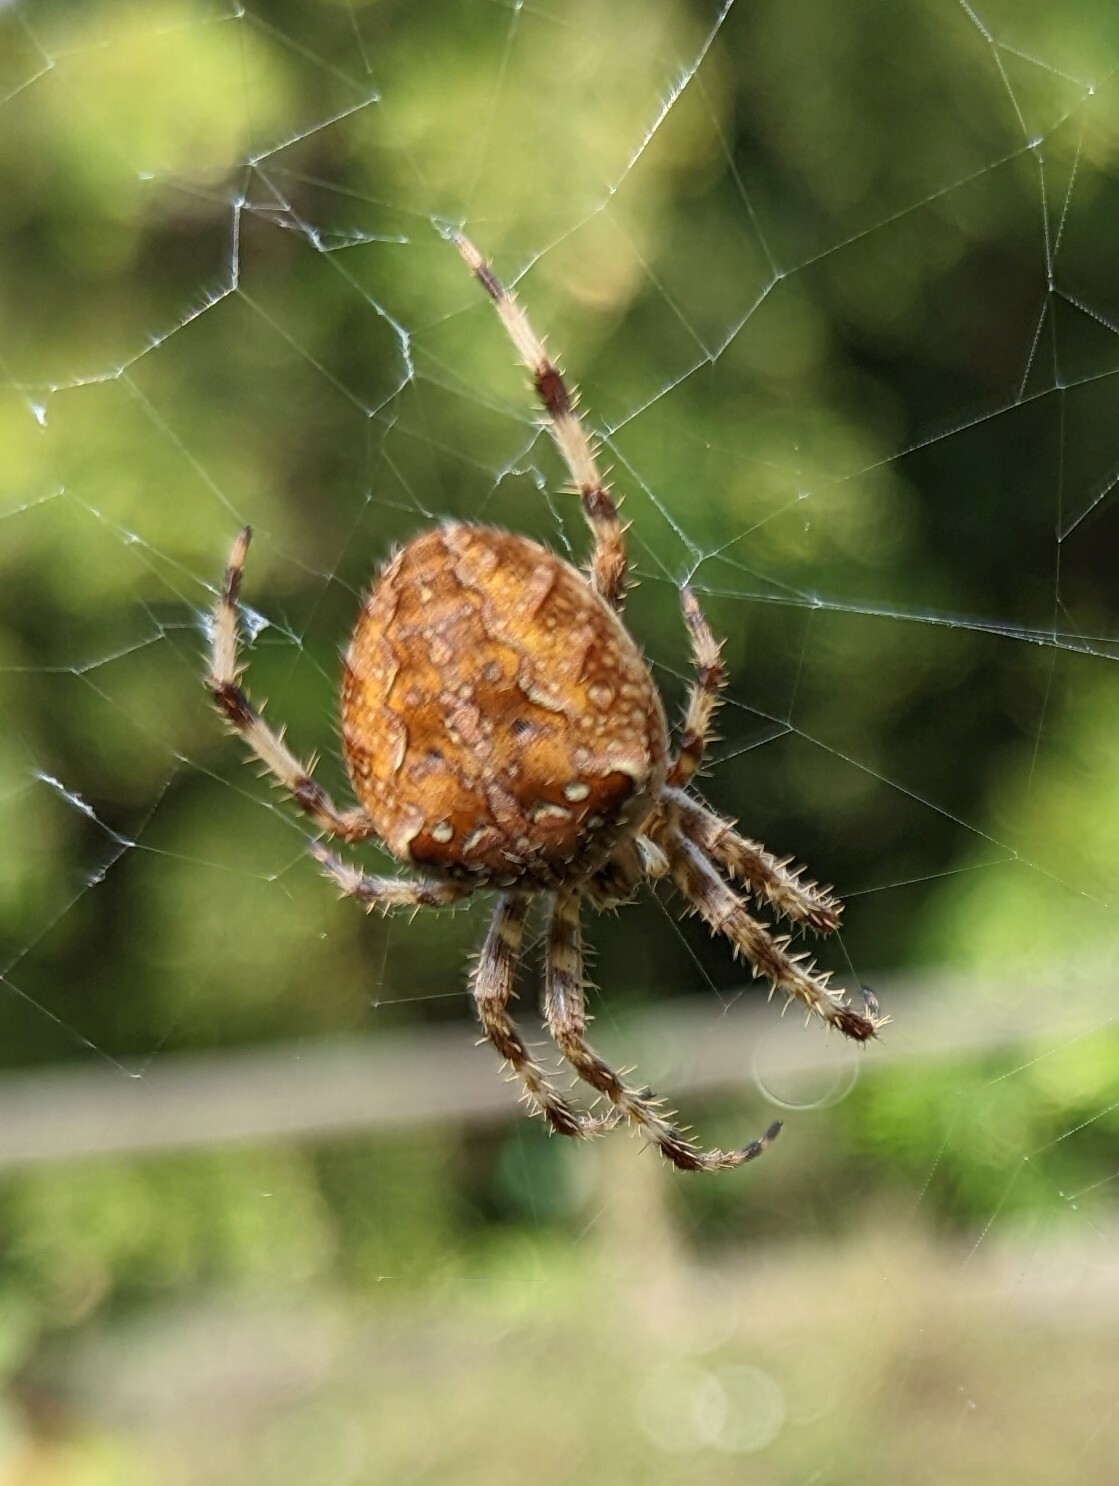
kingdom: Animalia
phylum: Arthropoda
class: Arachnida
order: Araneae
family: Araneidae
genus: Araneus
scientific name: Araneus diadematus
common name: Cross orbweaver
